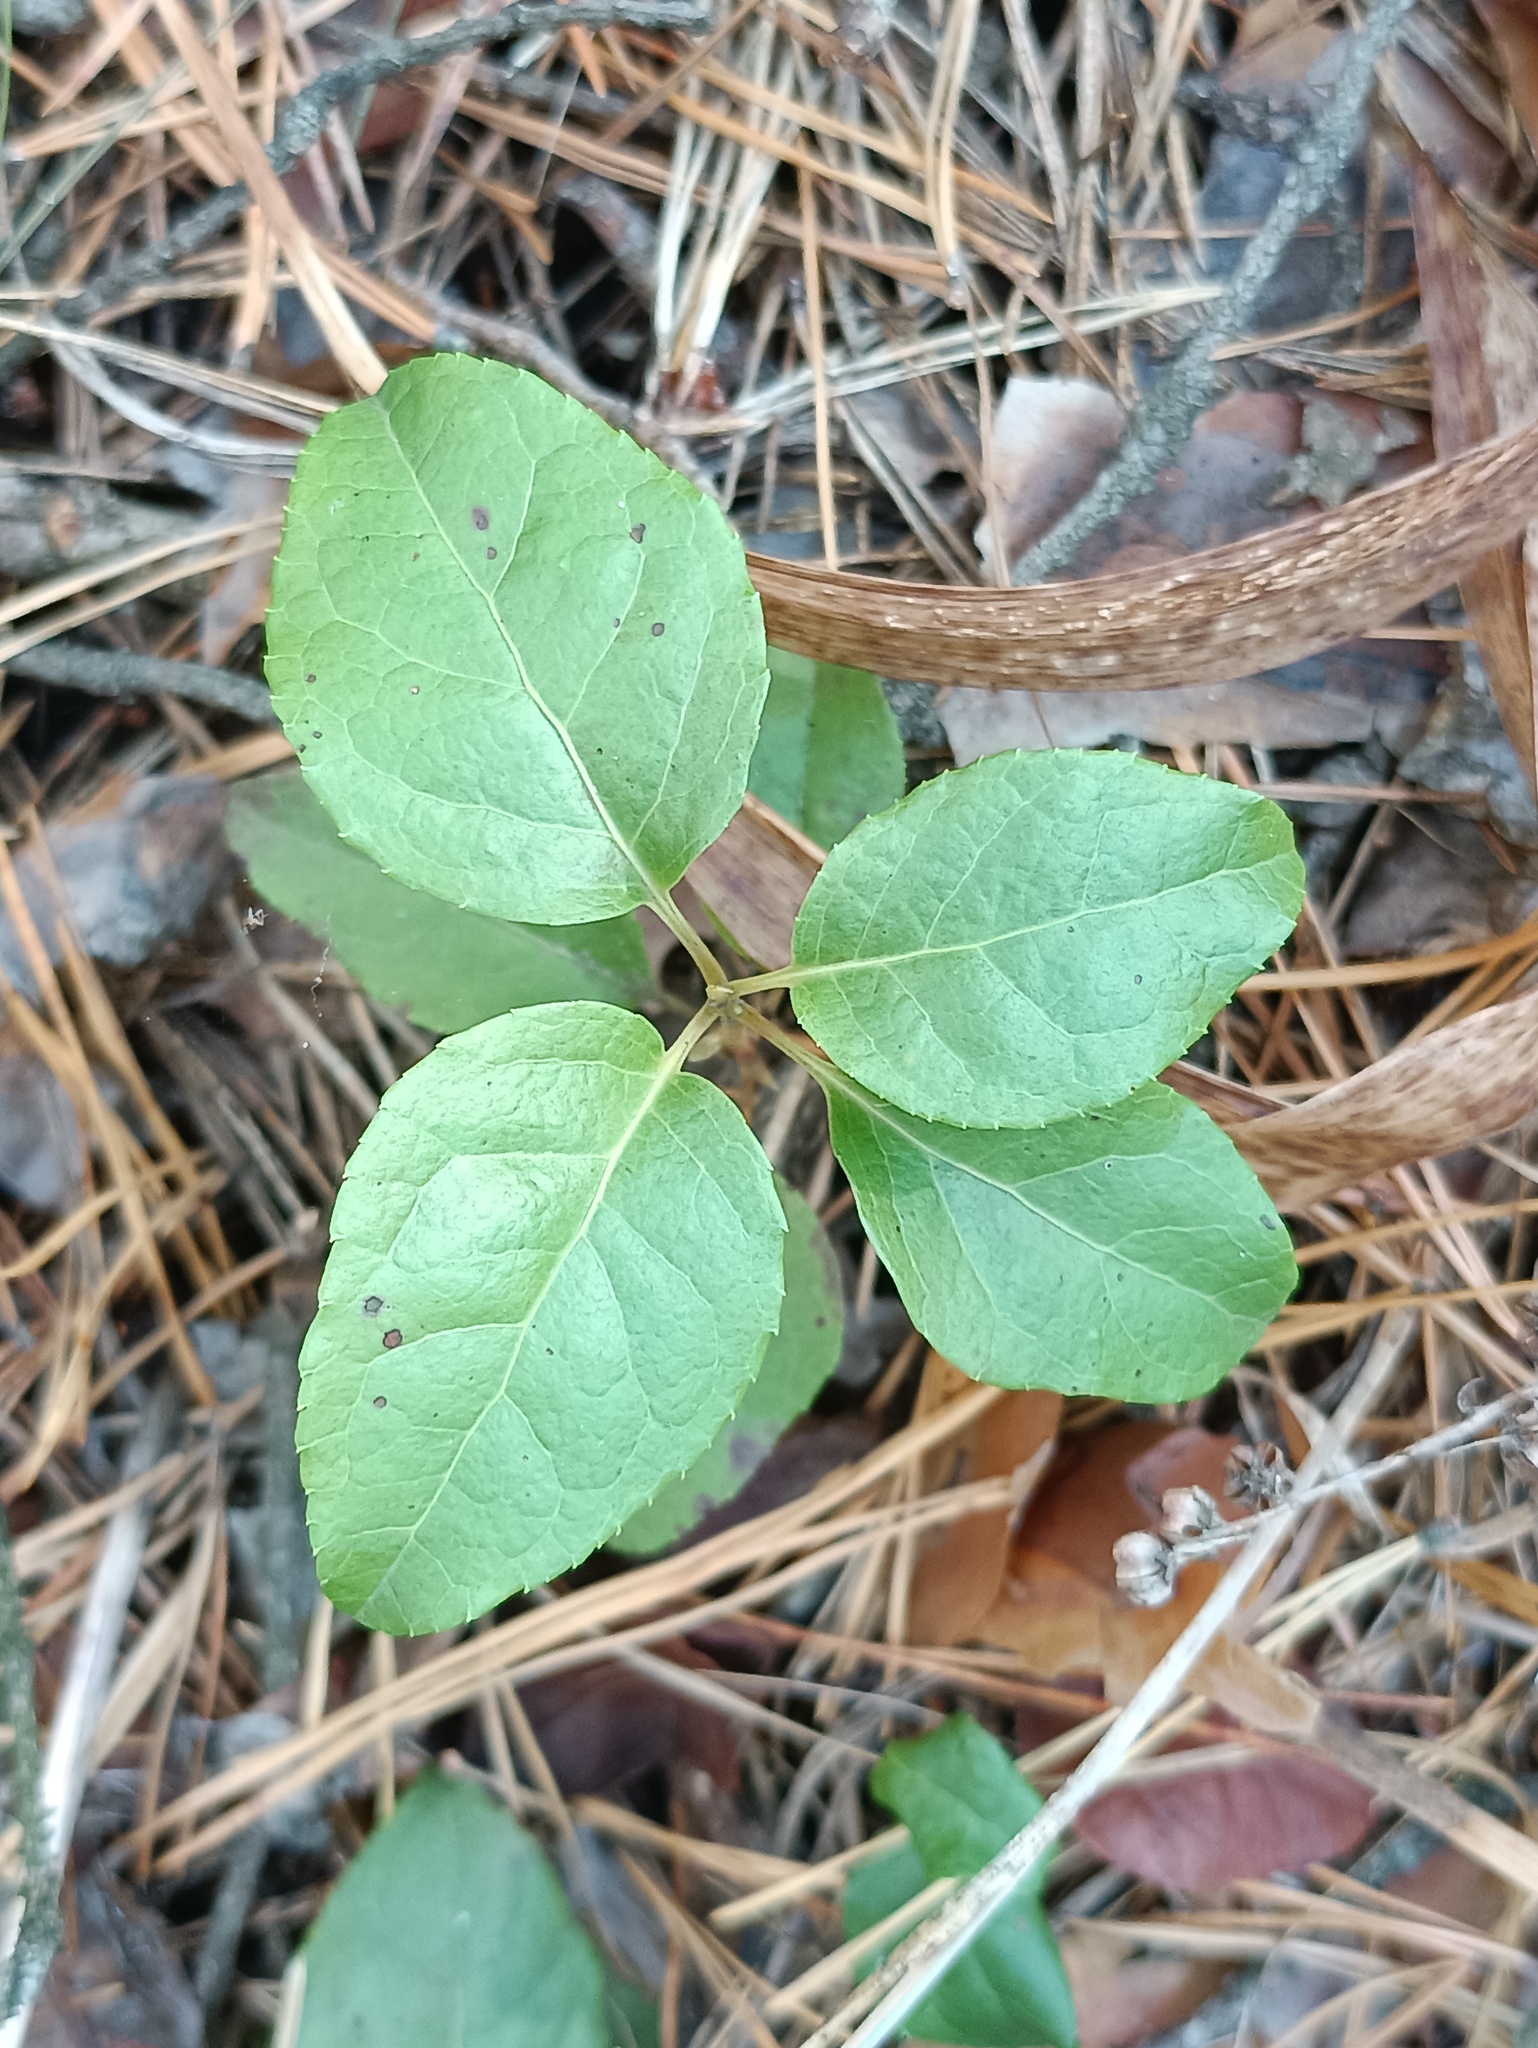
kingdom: Plantae
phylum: Tracheophyta
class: Magnoliopsida
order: Ericales
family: Ericaceae
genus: Orthilia
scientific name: Orthilia secunda
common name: One-sided orthilia
